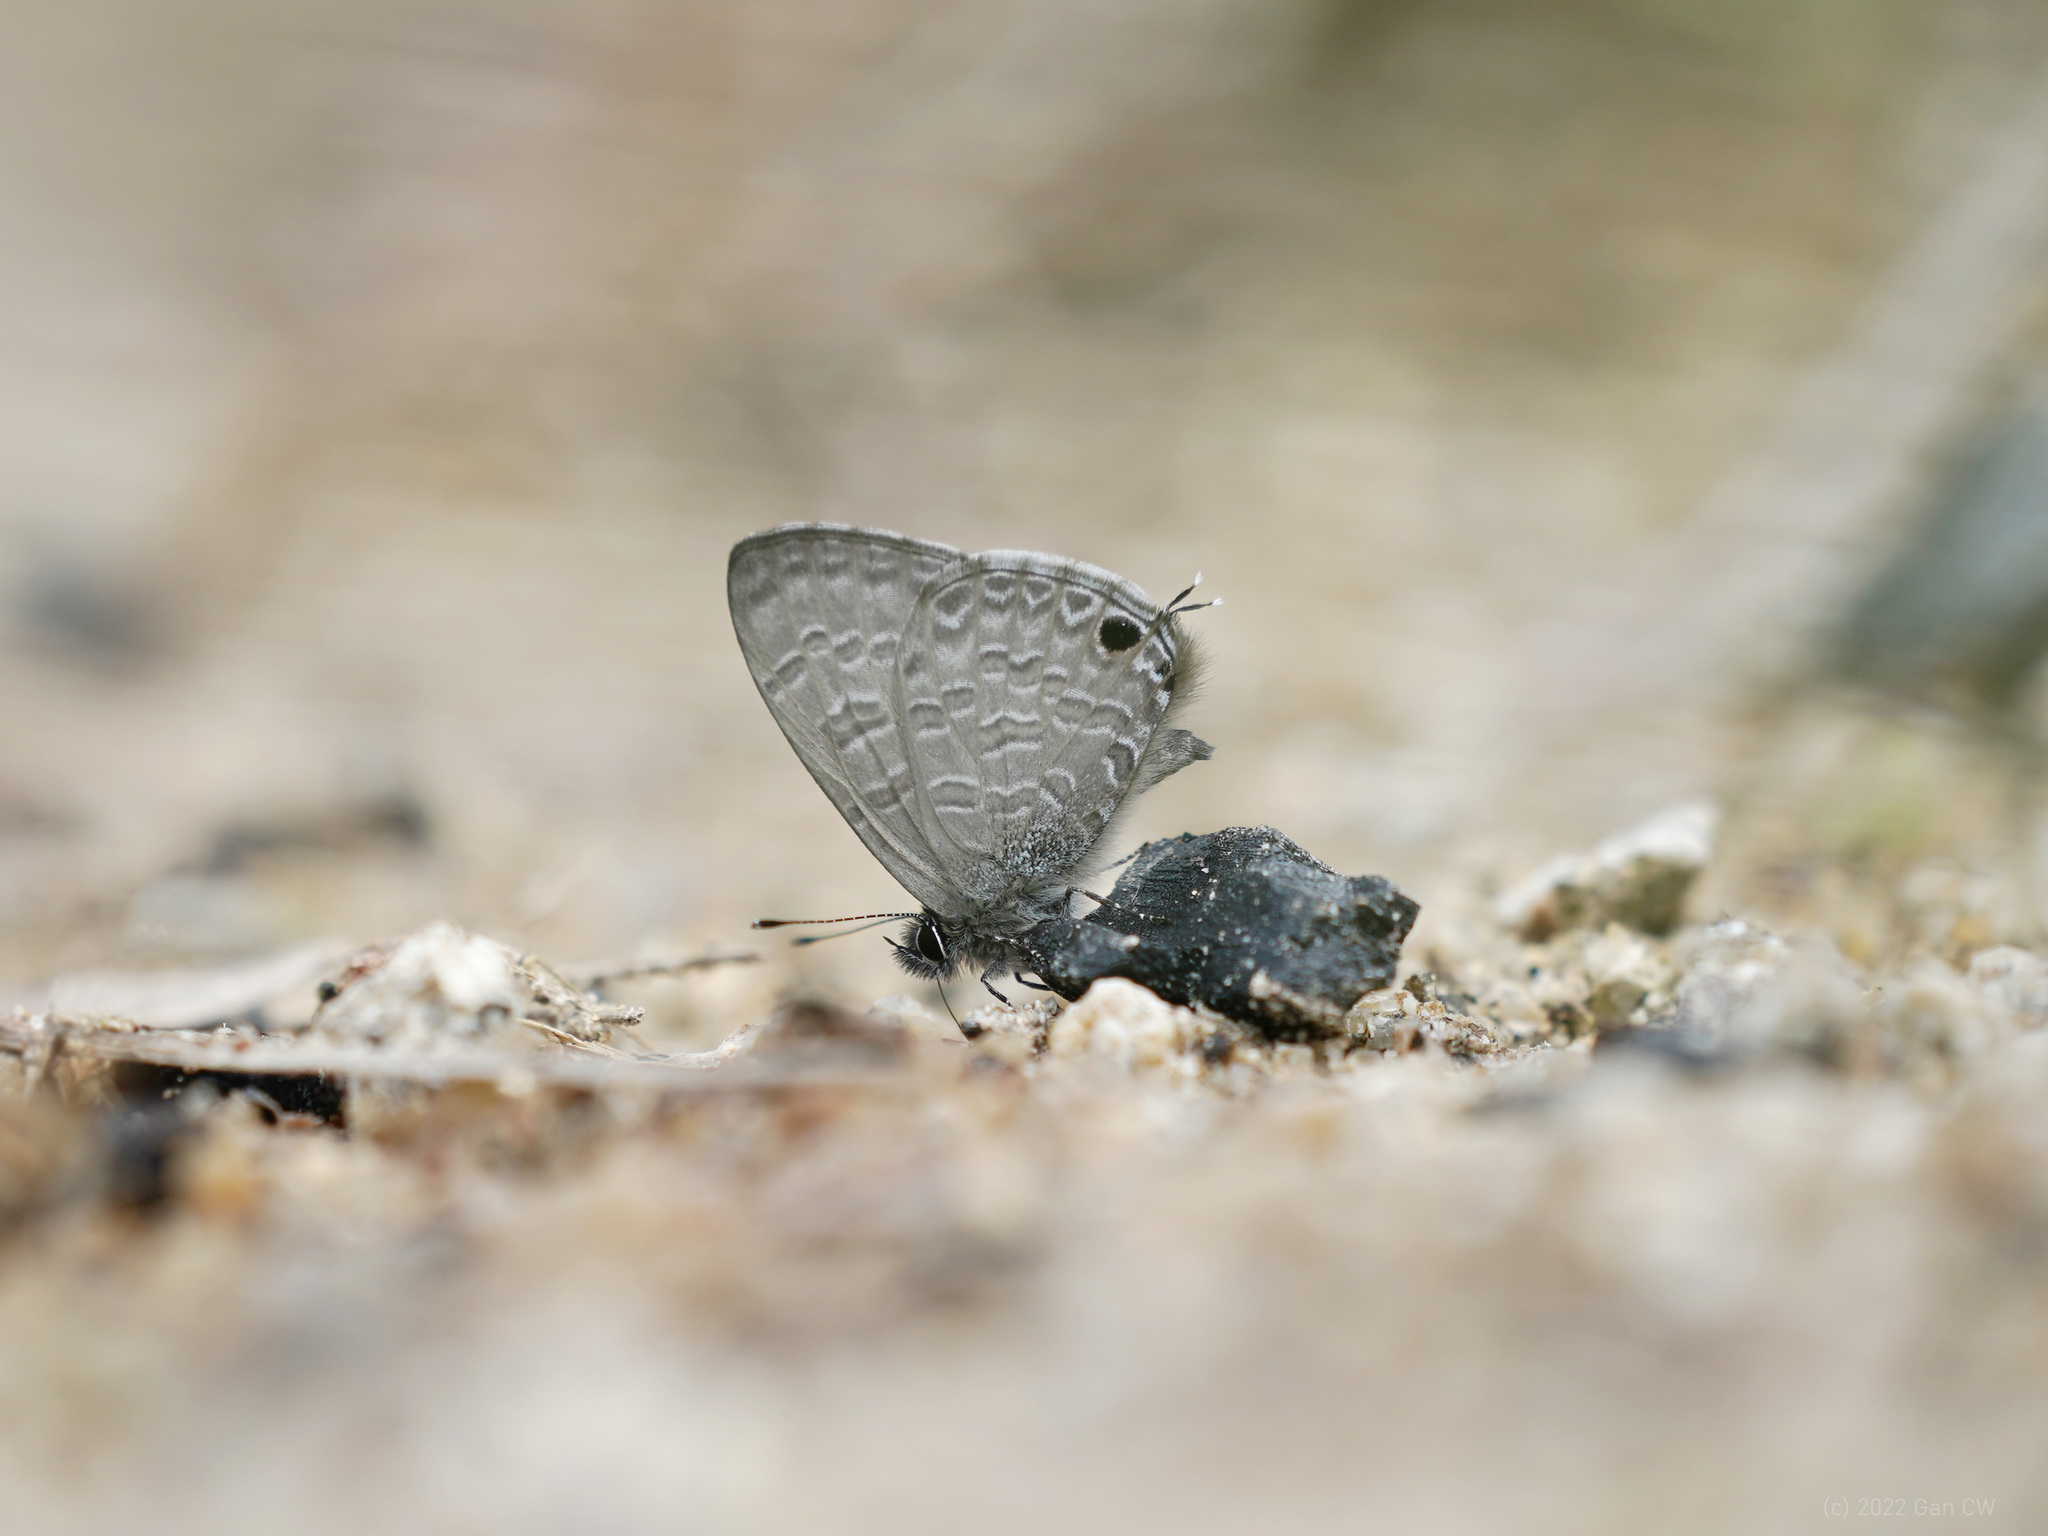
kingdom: Animalia
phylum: Arthropoda
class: Insecta
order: Lepidoptera
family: Lycaenidae
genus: Prosotas
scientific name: Prosotas nelides
